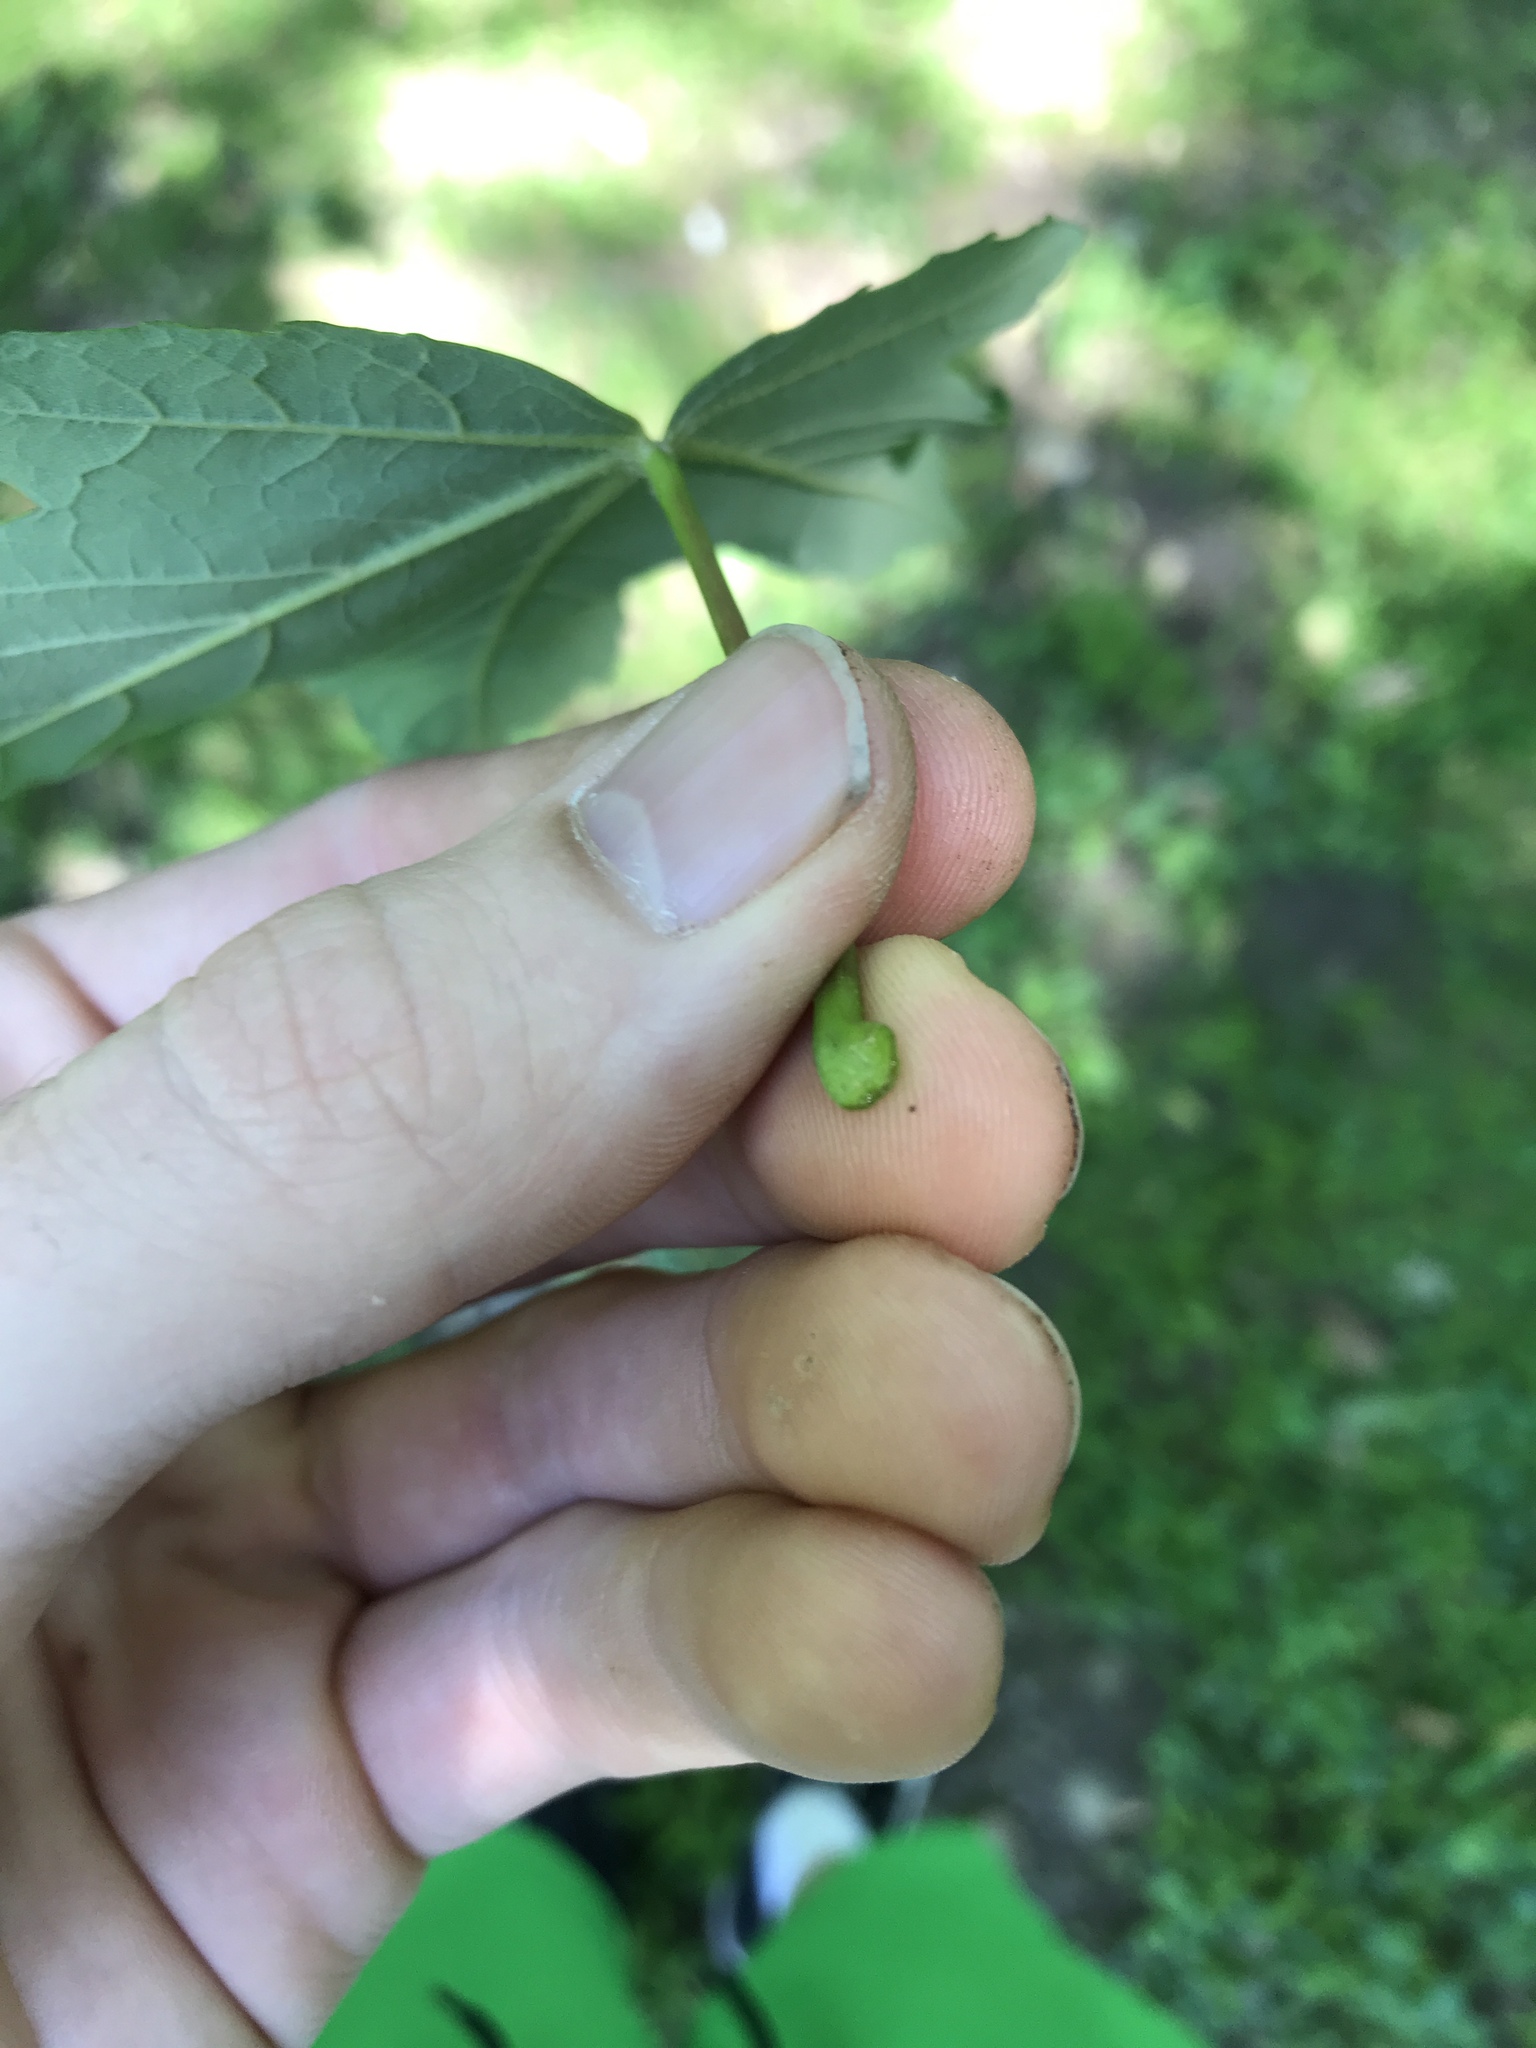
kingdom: Plantae
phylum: Tracheophyta
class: Magnoliopsida
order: Sapindales
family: Sapindaceae
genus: Acer
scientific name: Acer pseudoplatanus
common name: Sycamore
